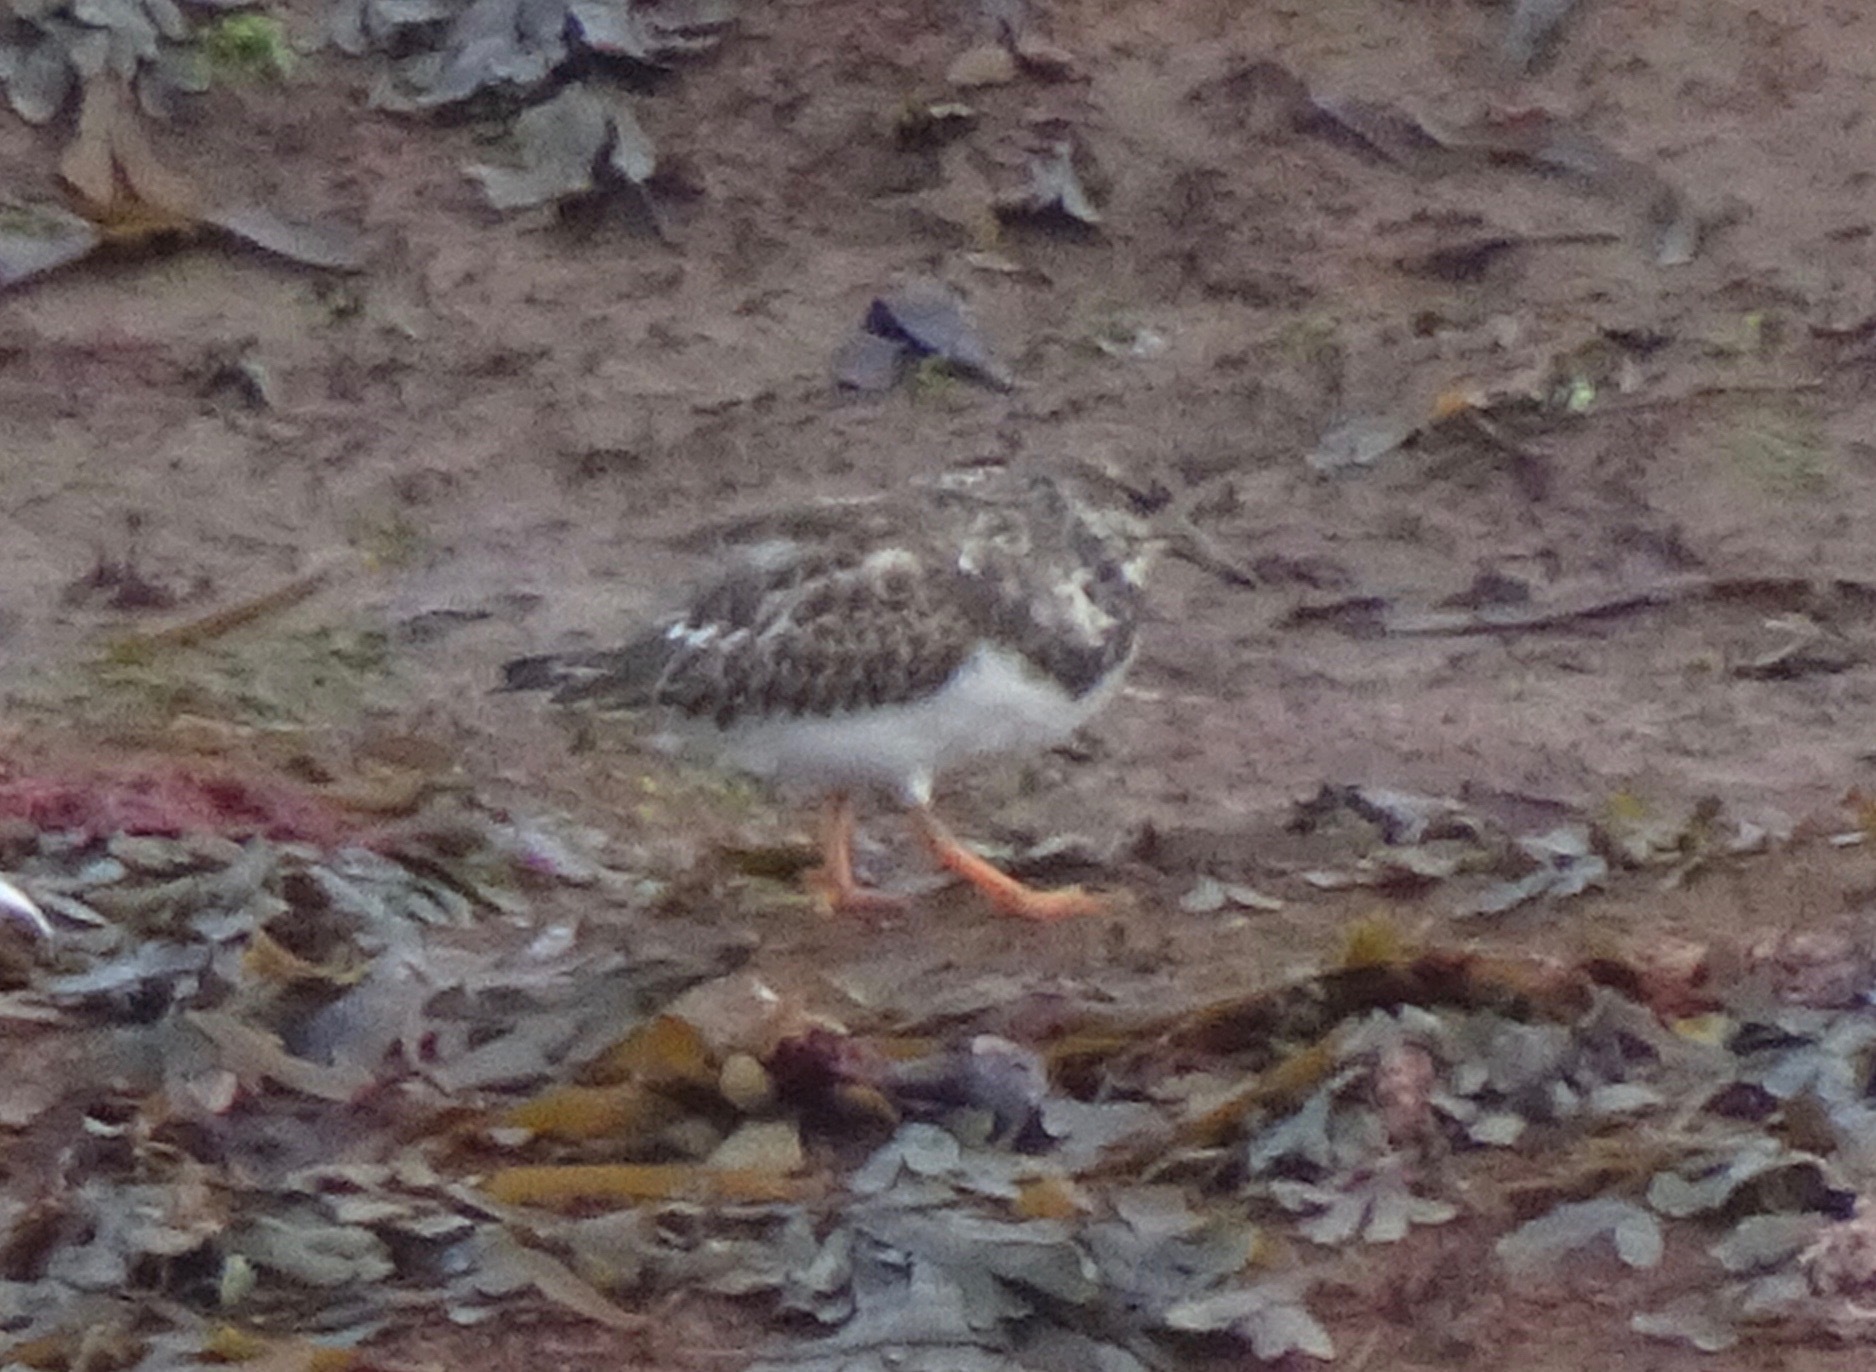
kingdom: Animalia
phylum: Chordata
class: Aves
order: Charadriiformes
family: Scolopacidae
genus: Arenaria
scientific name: Arenaria interpres
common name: Ruddy turnstone
